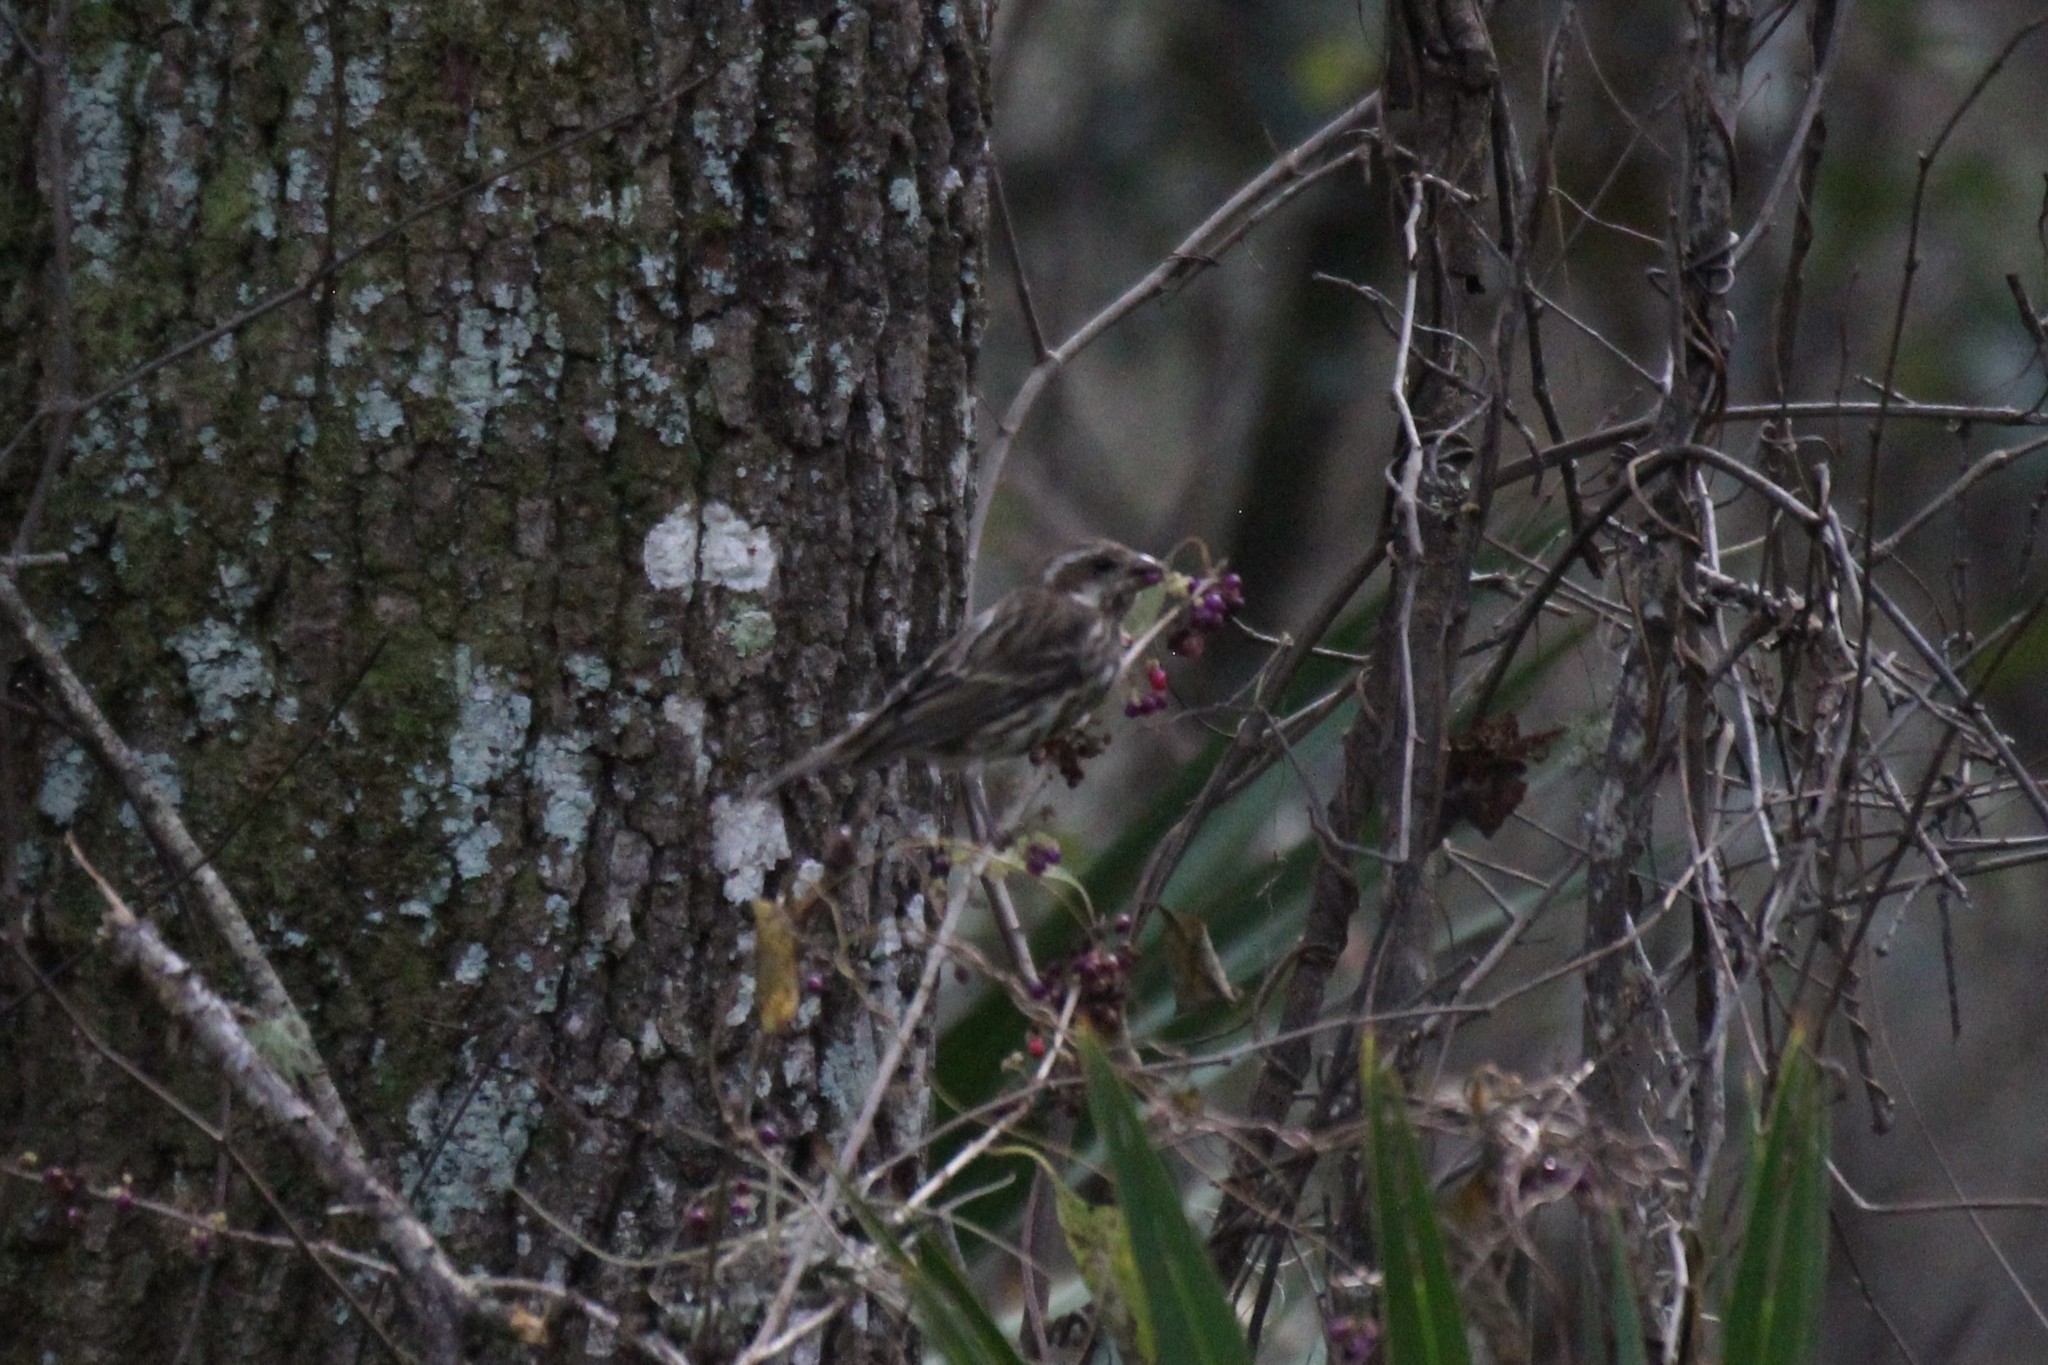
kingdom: Animalia
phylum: Chordata
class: Aves
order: Passeriformes
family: Fringillidae
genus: Haemorhous
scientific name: Haemorhous purpureus
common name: Purple finch
